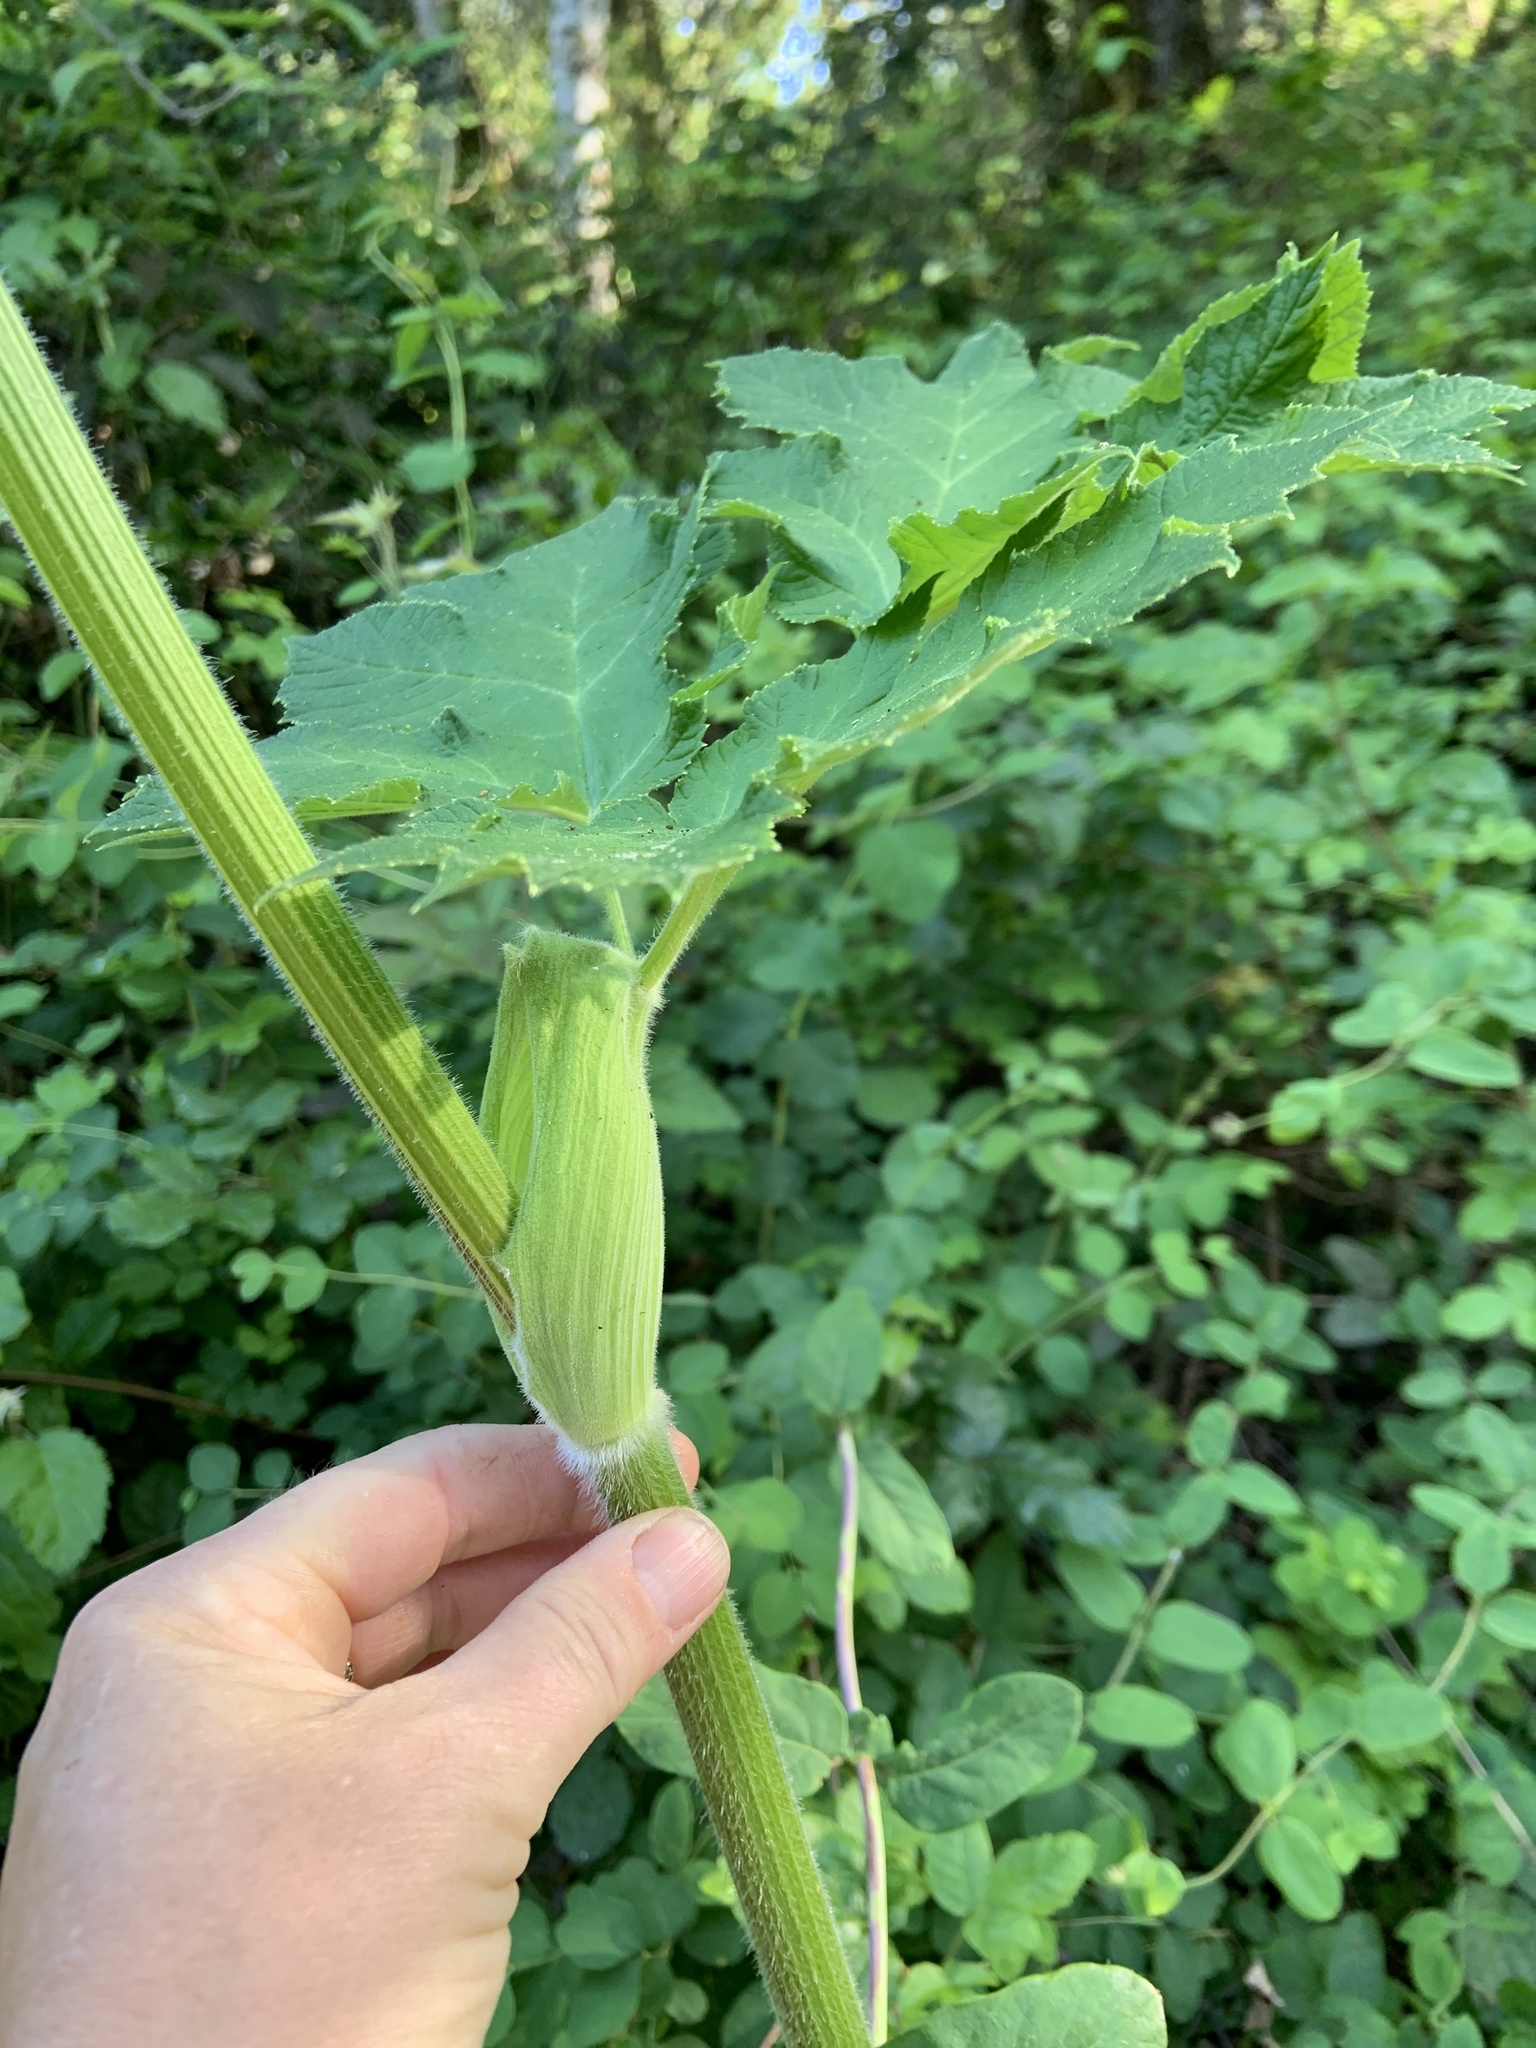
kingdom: Plantae
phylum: Tracheophyta
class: Magnoliopsida
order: Apiales
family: Apiaceae
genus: Heracleum
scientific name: Heracleum maximum
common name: American cow parsnip
